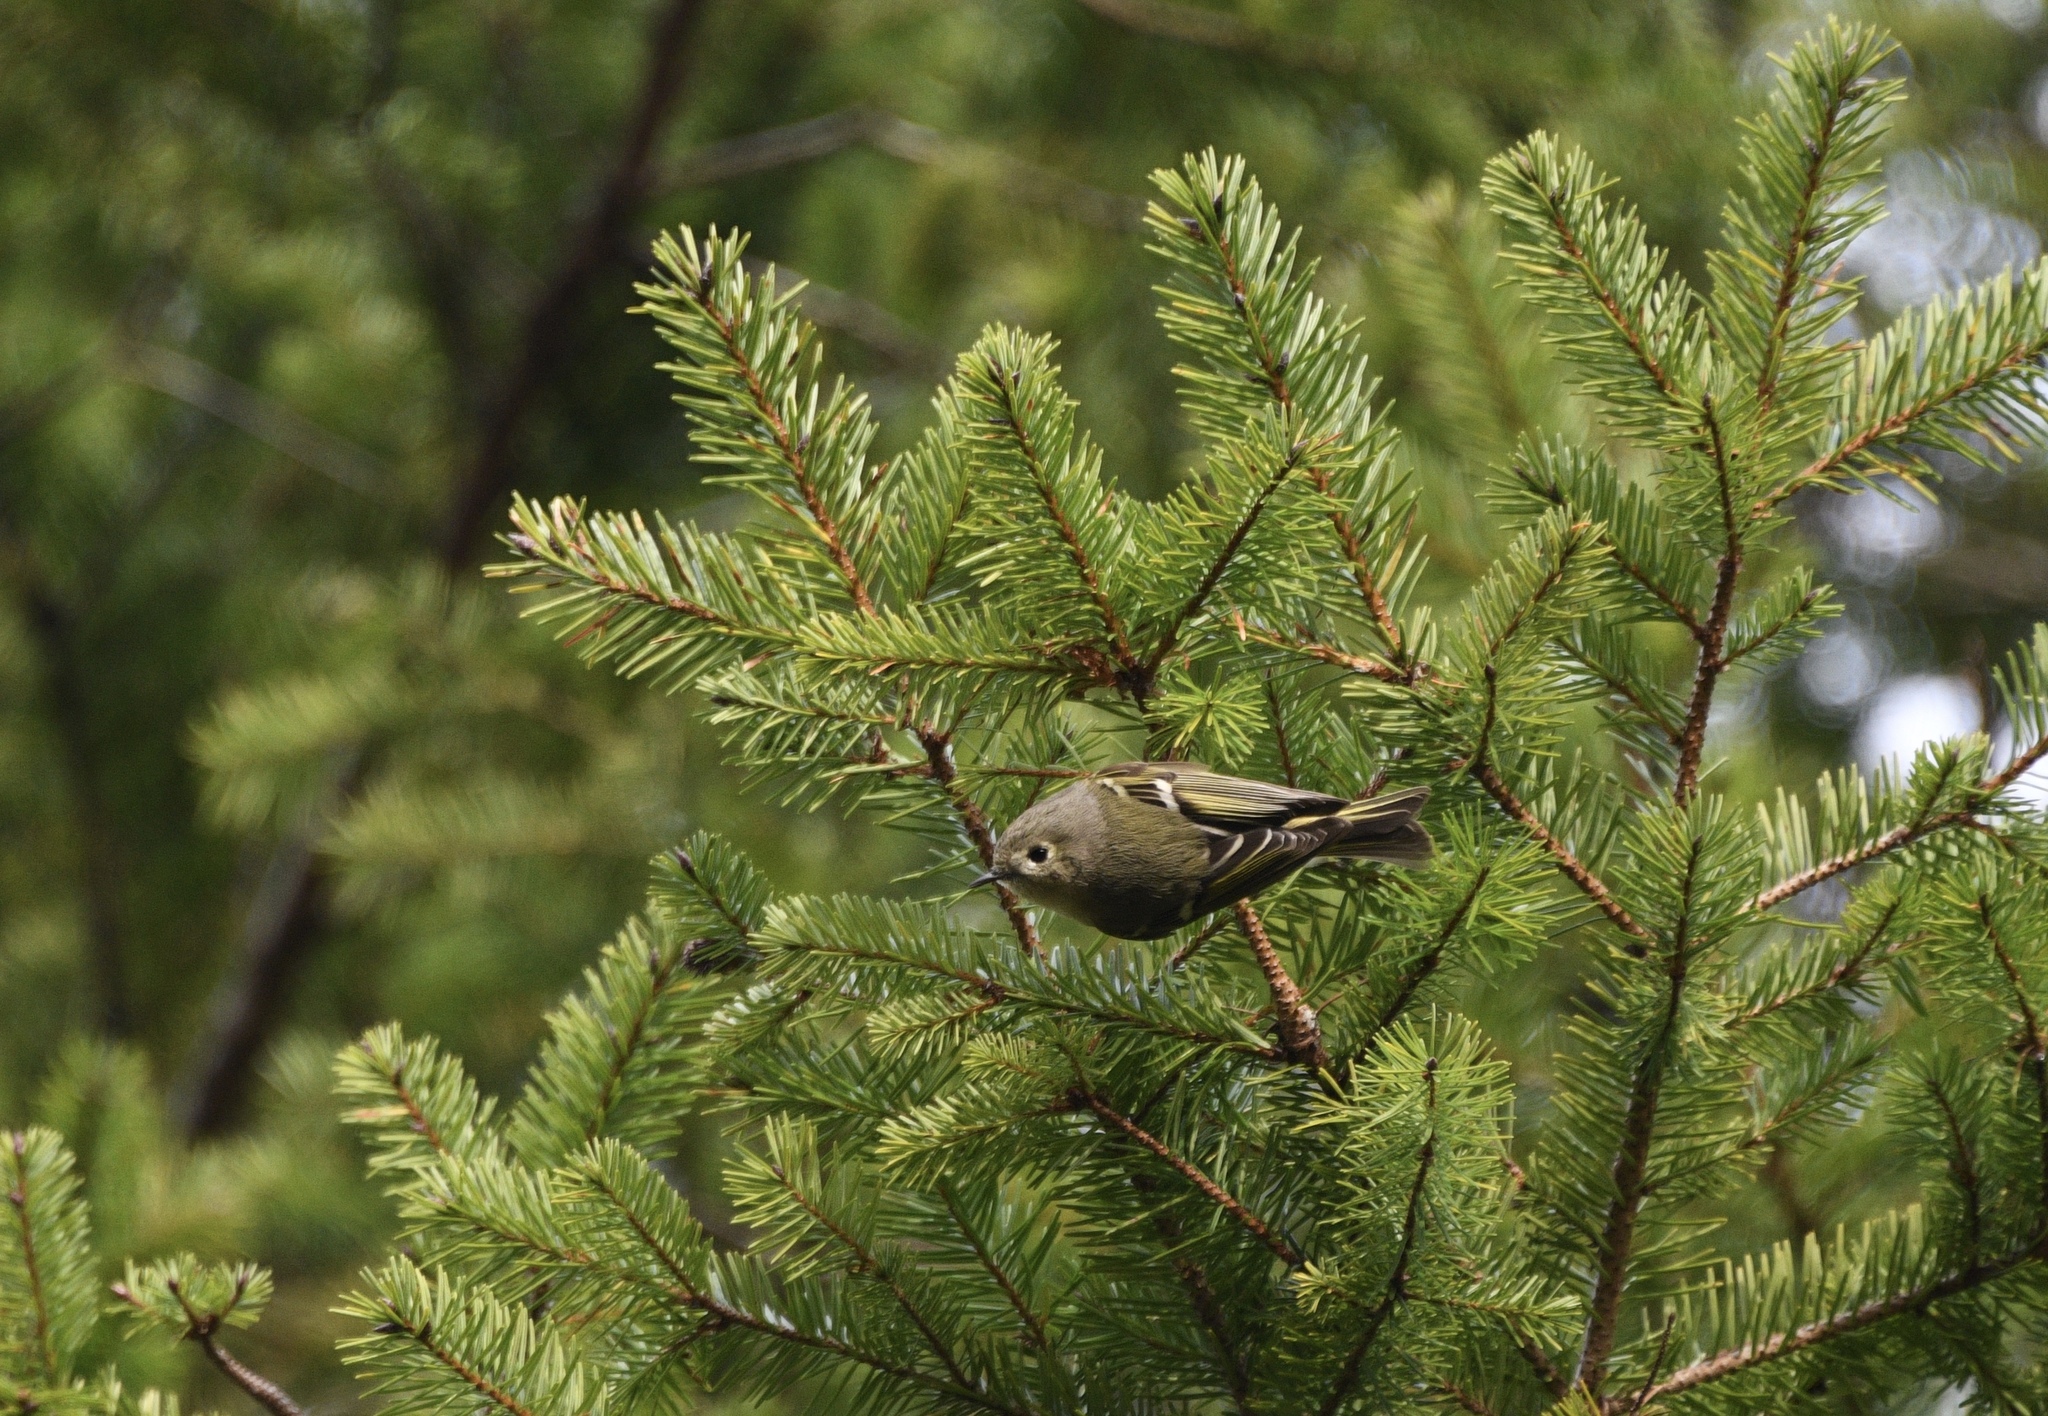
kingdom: Animalia
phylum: Chordata
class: Aves
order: Passeriformes
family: Regulidae
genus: Regulus
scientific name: Regulus calendula
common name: Ruby-crowned kinglet
